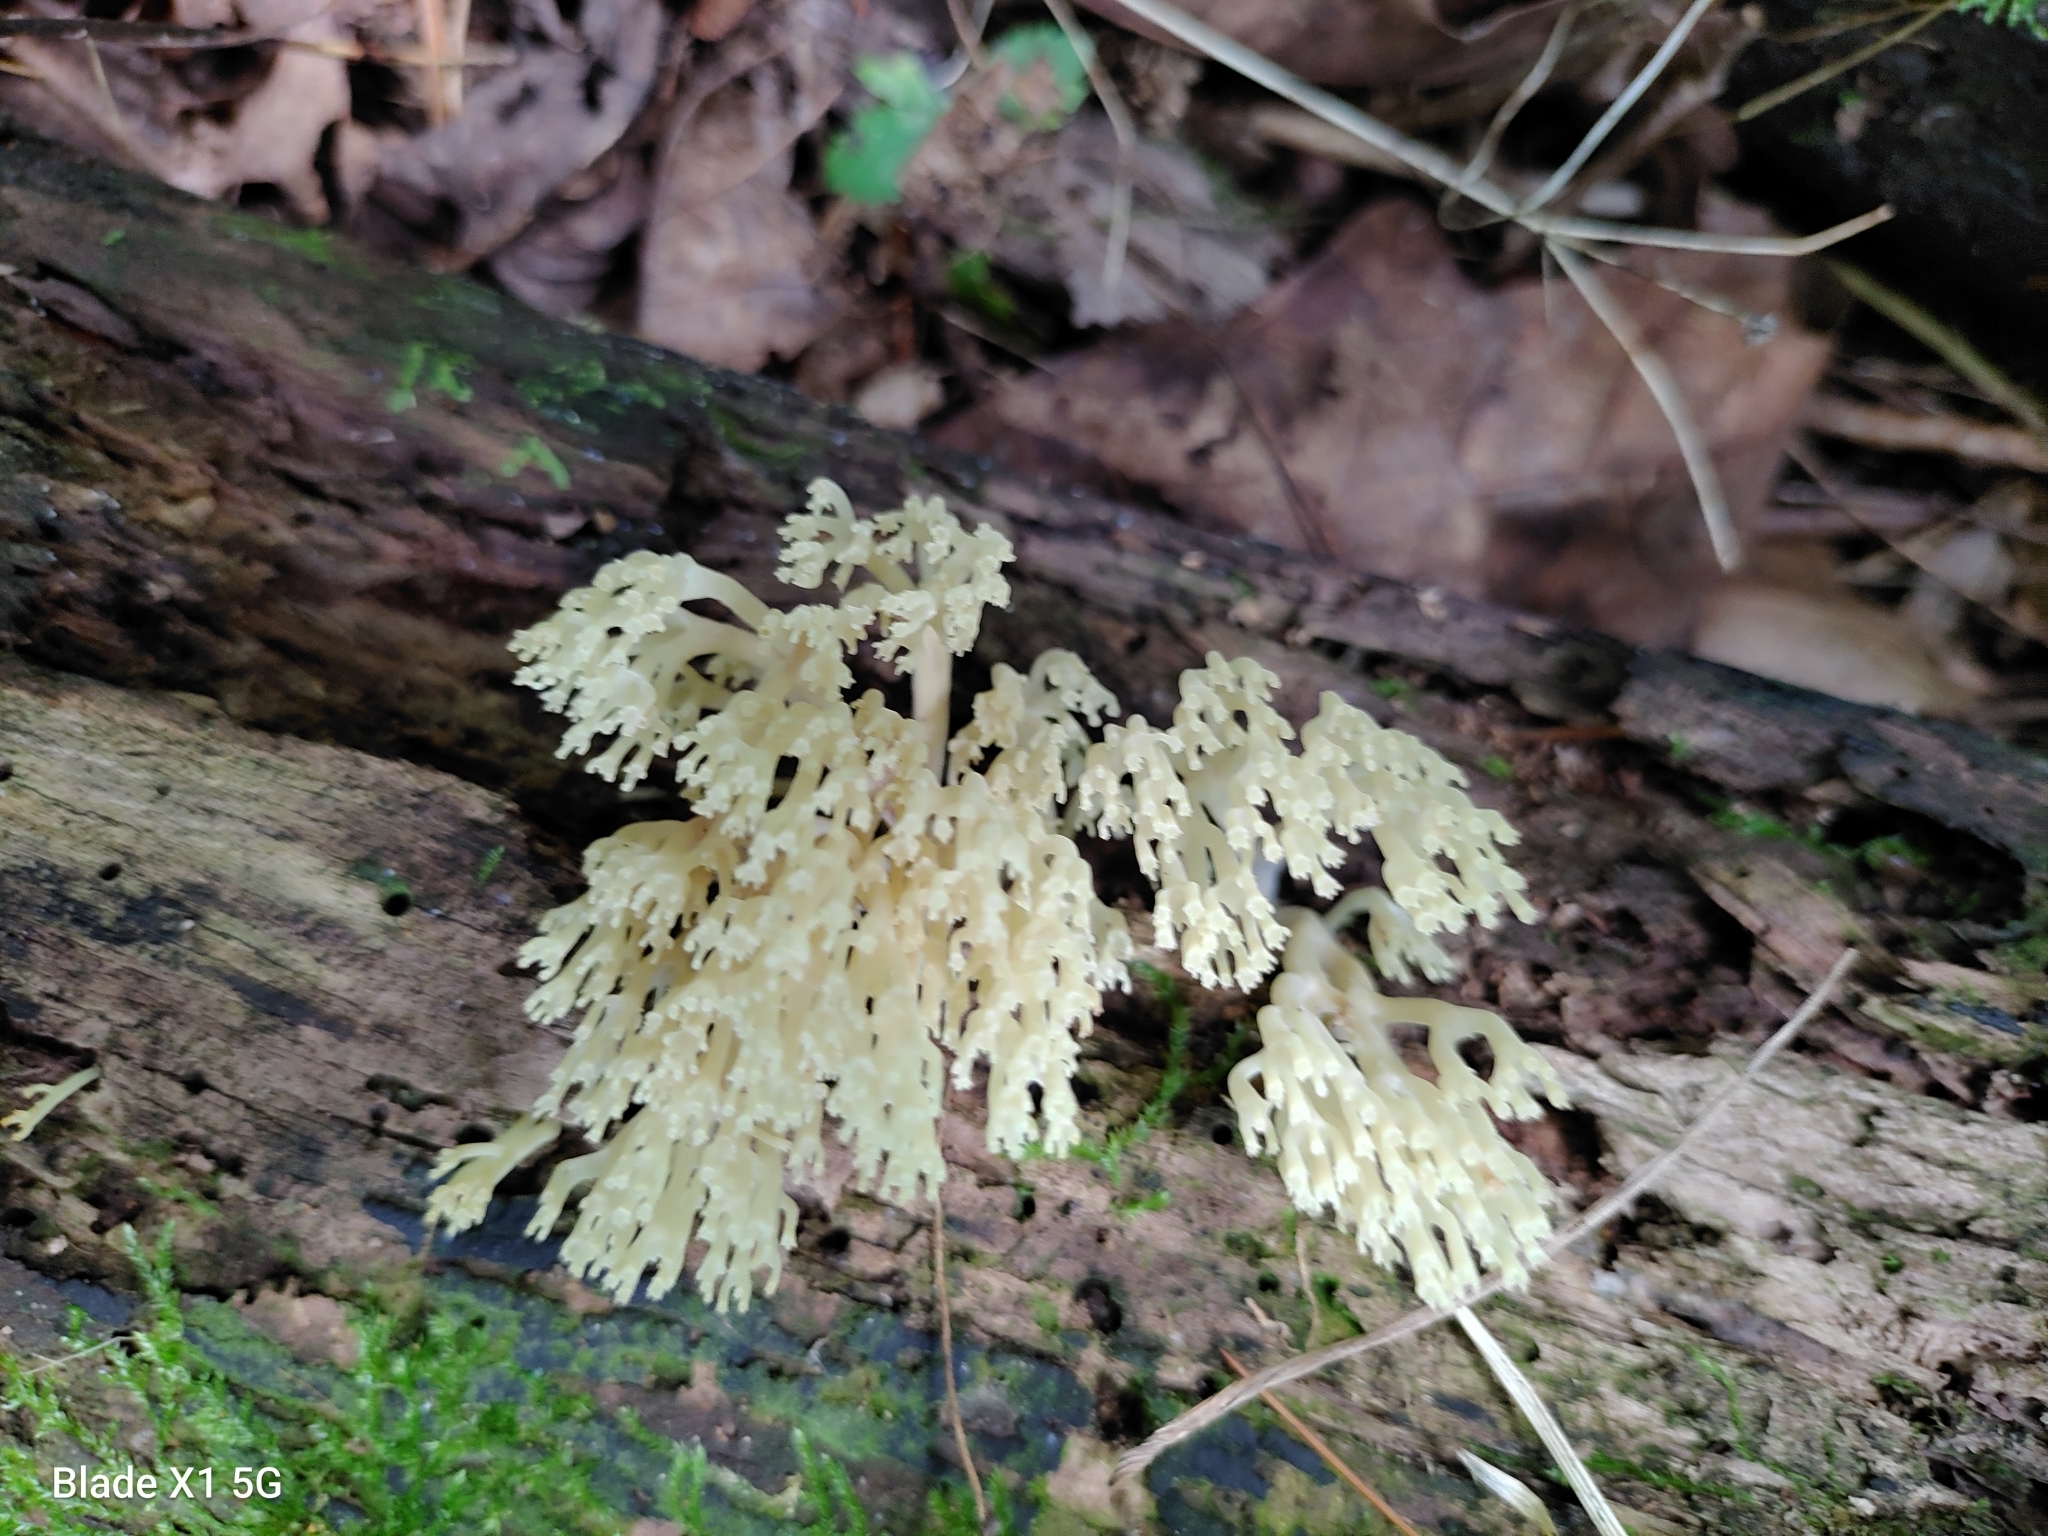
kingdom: Fungi
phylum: Basidiomycota
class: Agaricomycetes
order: Russulales
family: Auriscalpiaceae
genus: Artomyces
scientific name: Artomyces pyxidatus
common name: Crown-tipped coral fungus
